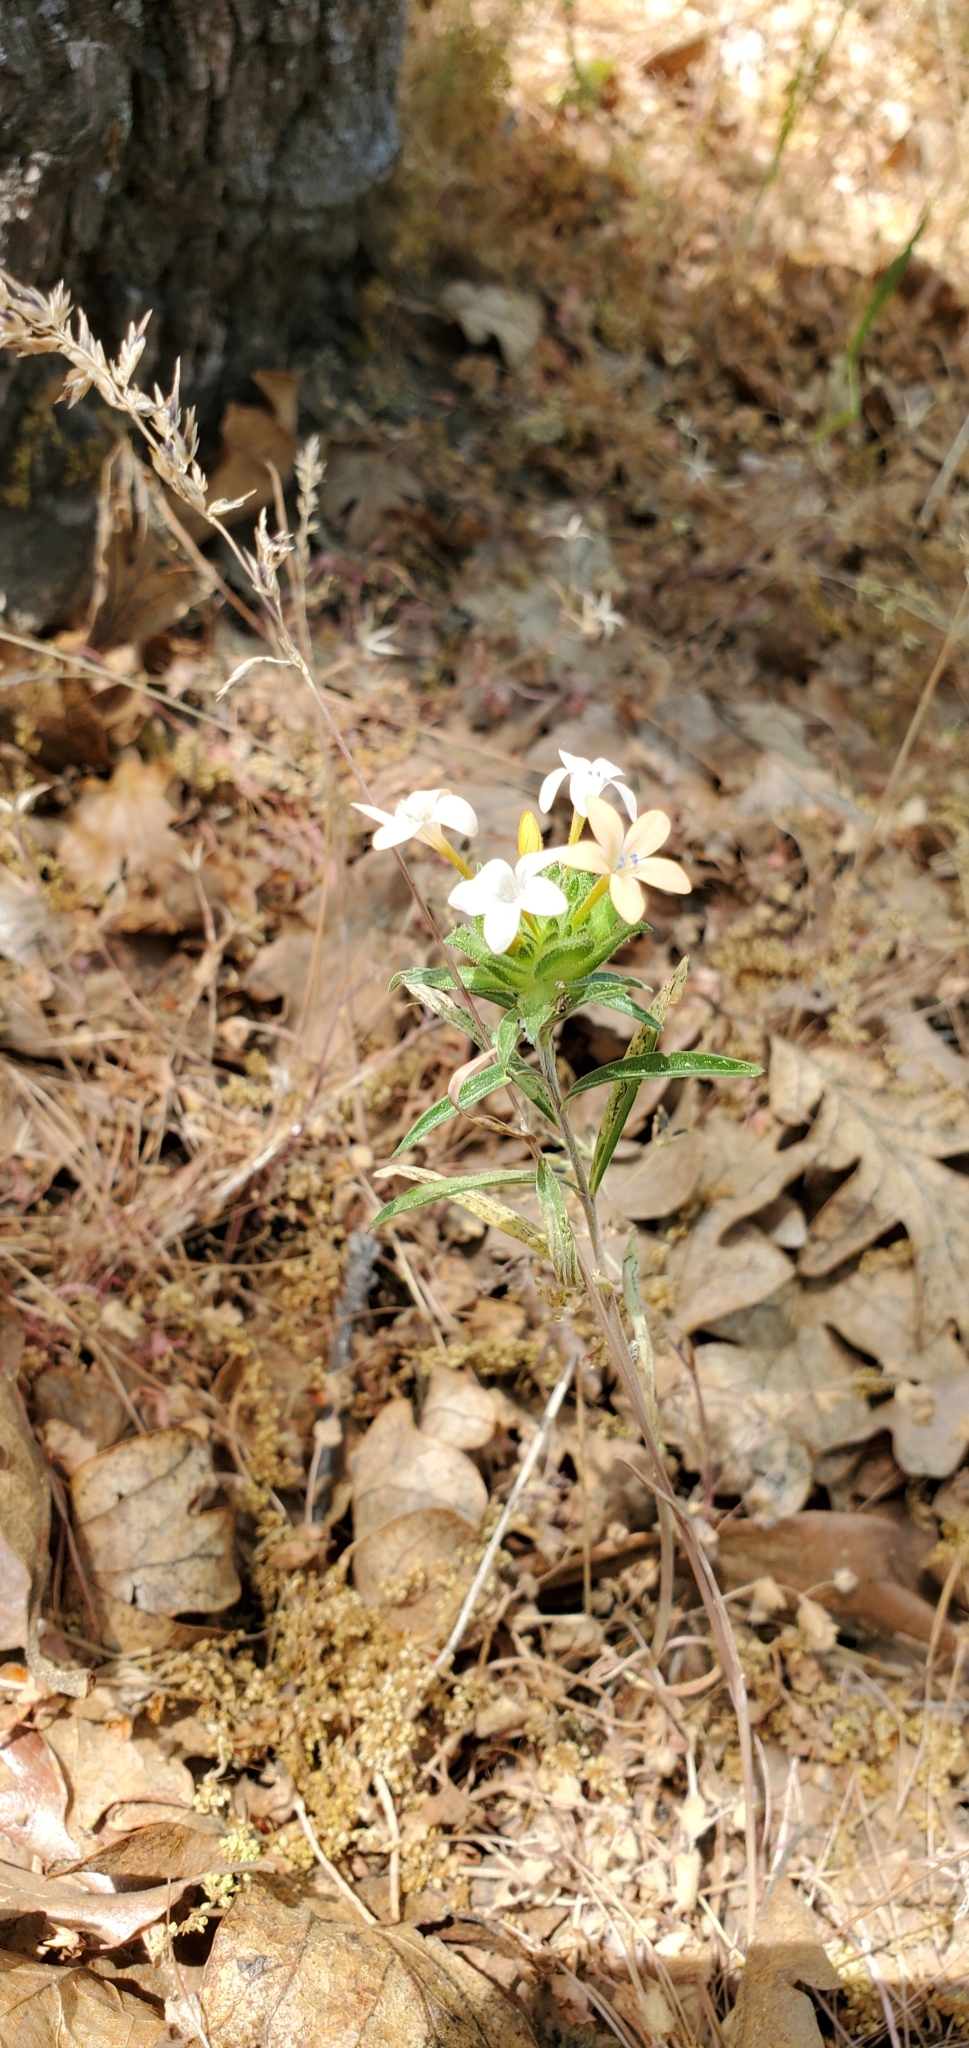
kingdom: Plantae
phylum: Tracheophyta
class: Magnoliopsida
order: Ericales
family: Polemoniaceae
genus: Collomia
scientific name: Collomia grandiflora
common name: California strawflower
